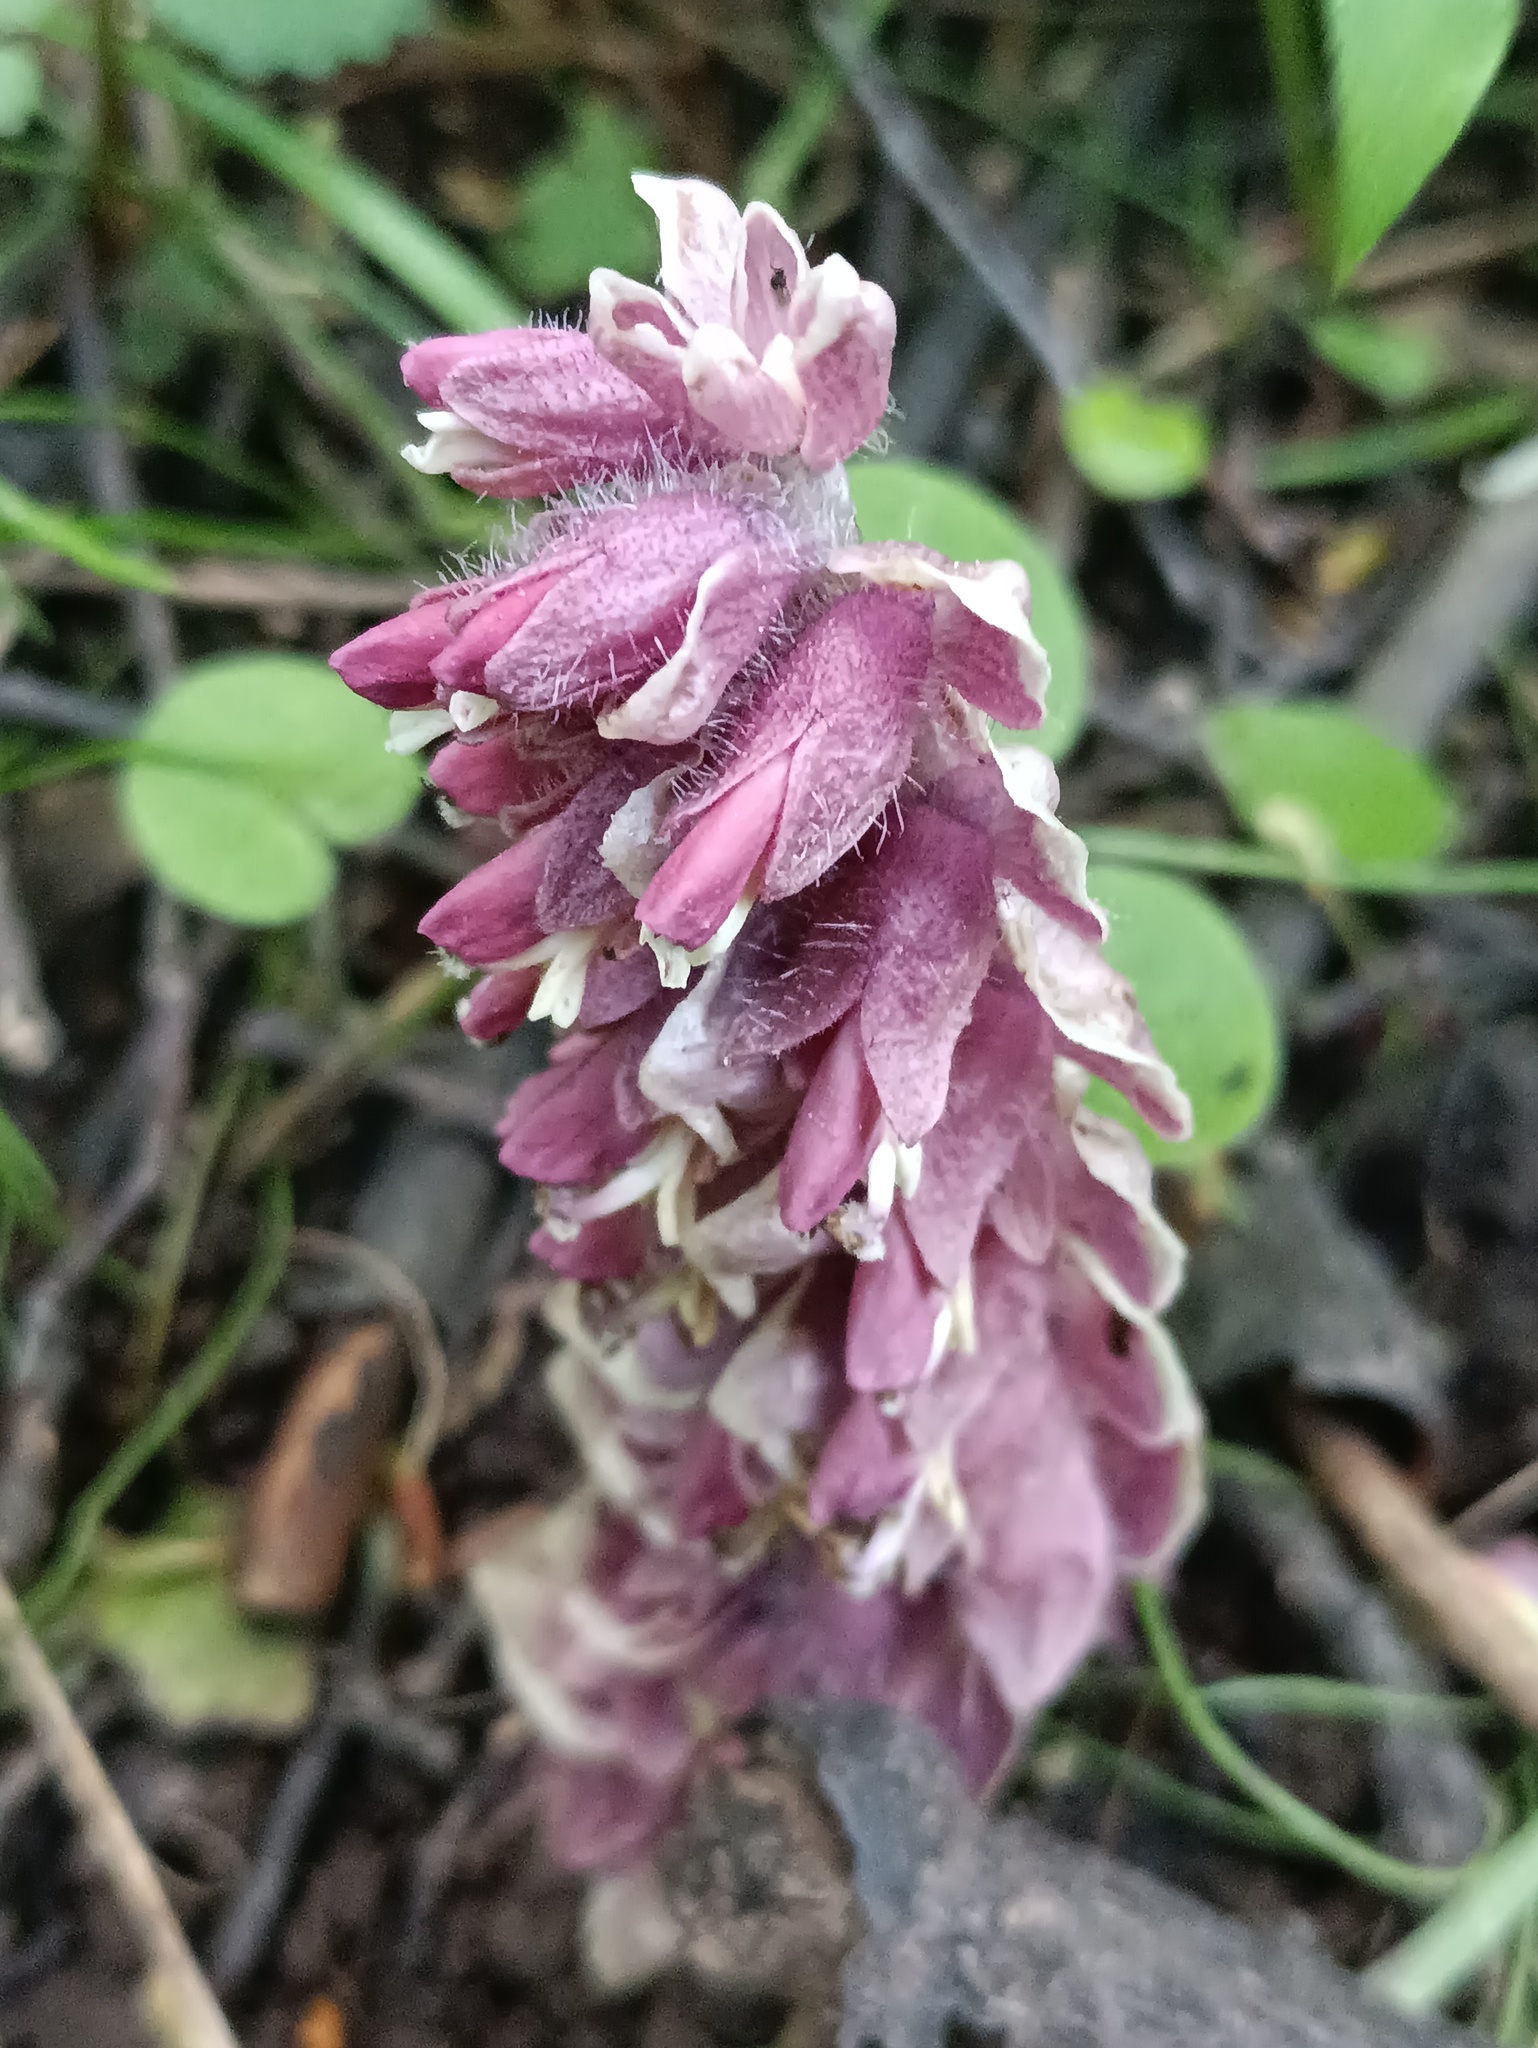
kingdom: Plantae
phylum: Tracheophyta
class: Magnoliopsida
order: Lamiales
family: Orobanchaceae
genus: Lathraea
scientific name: Lathraea squamaria
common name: Toothwort
